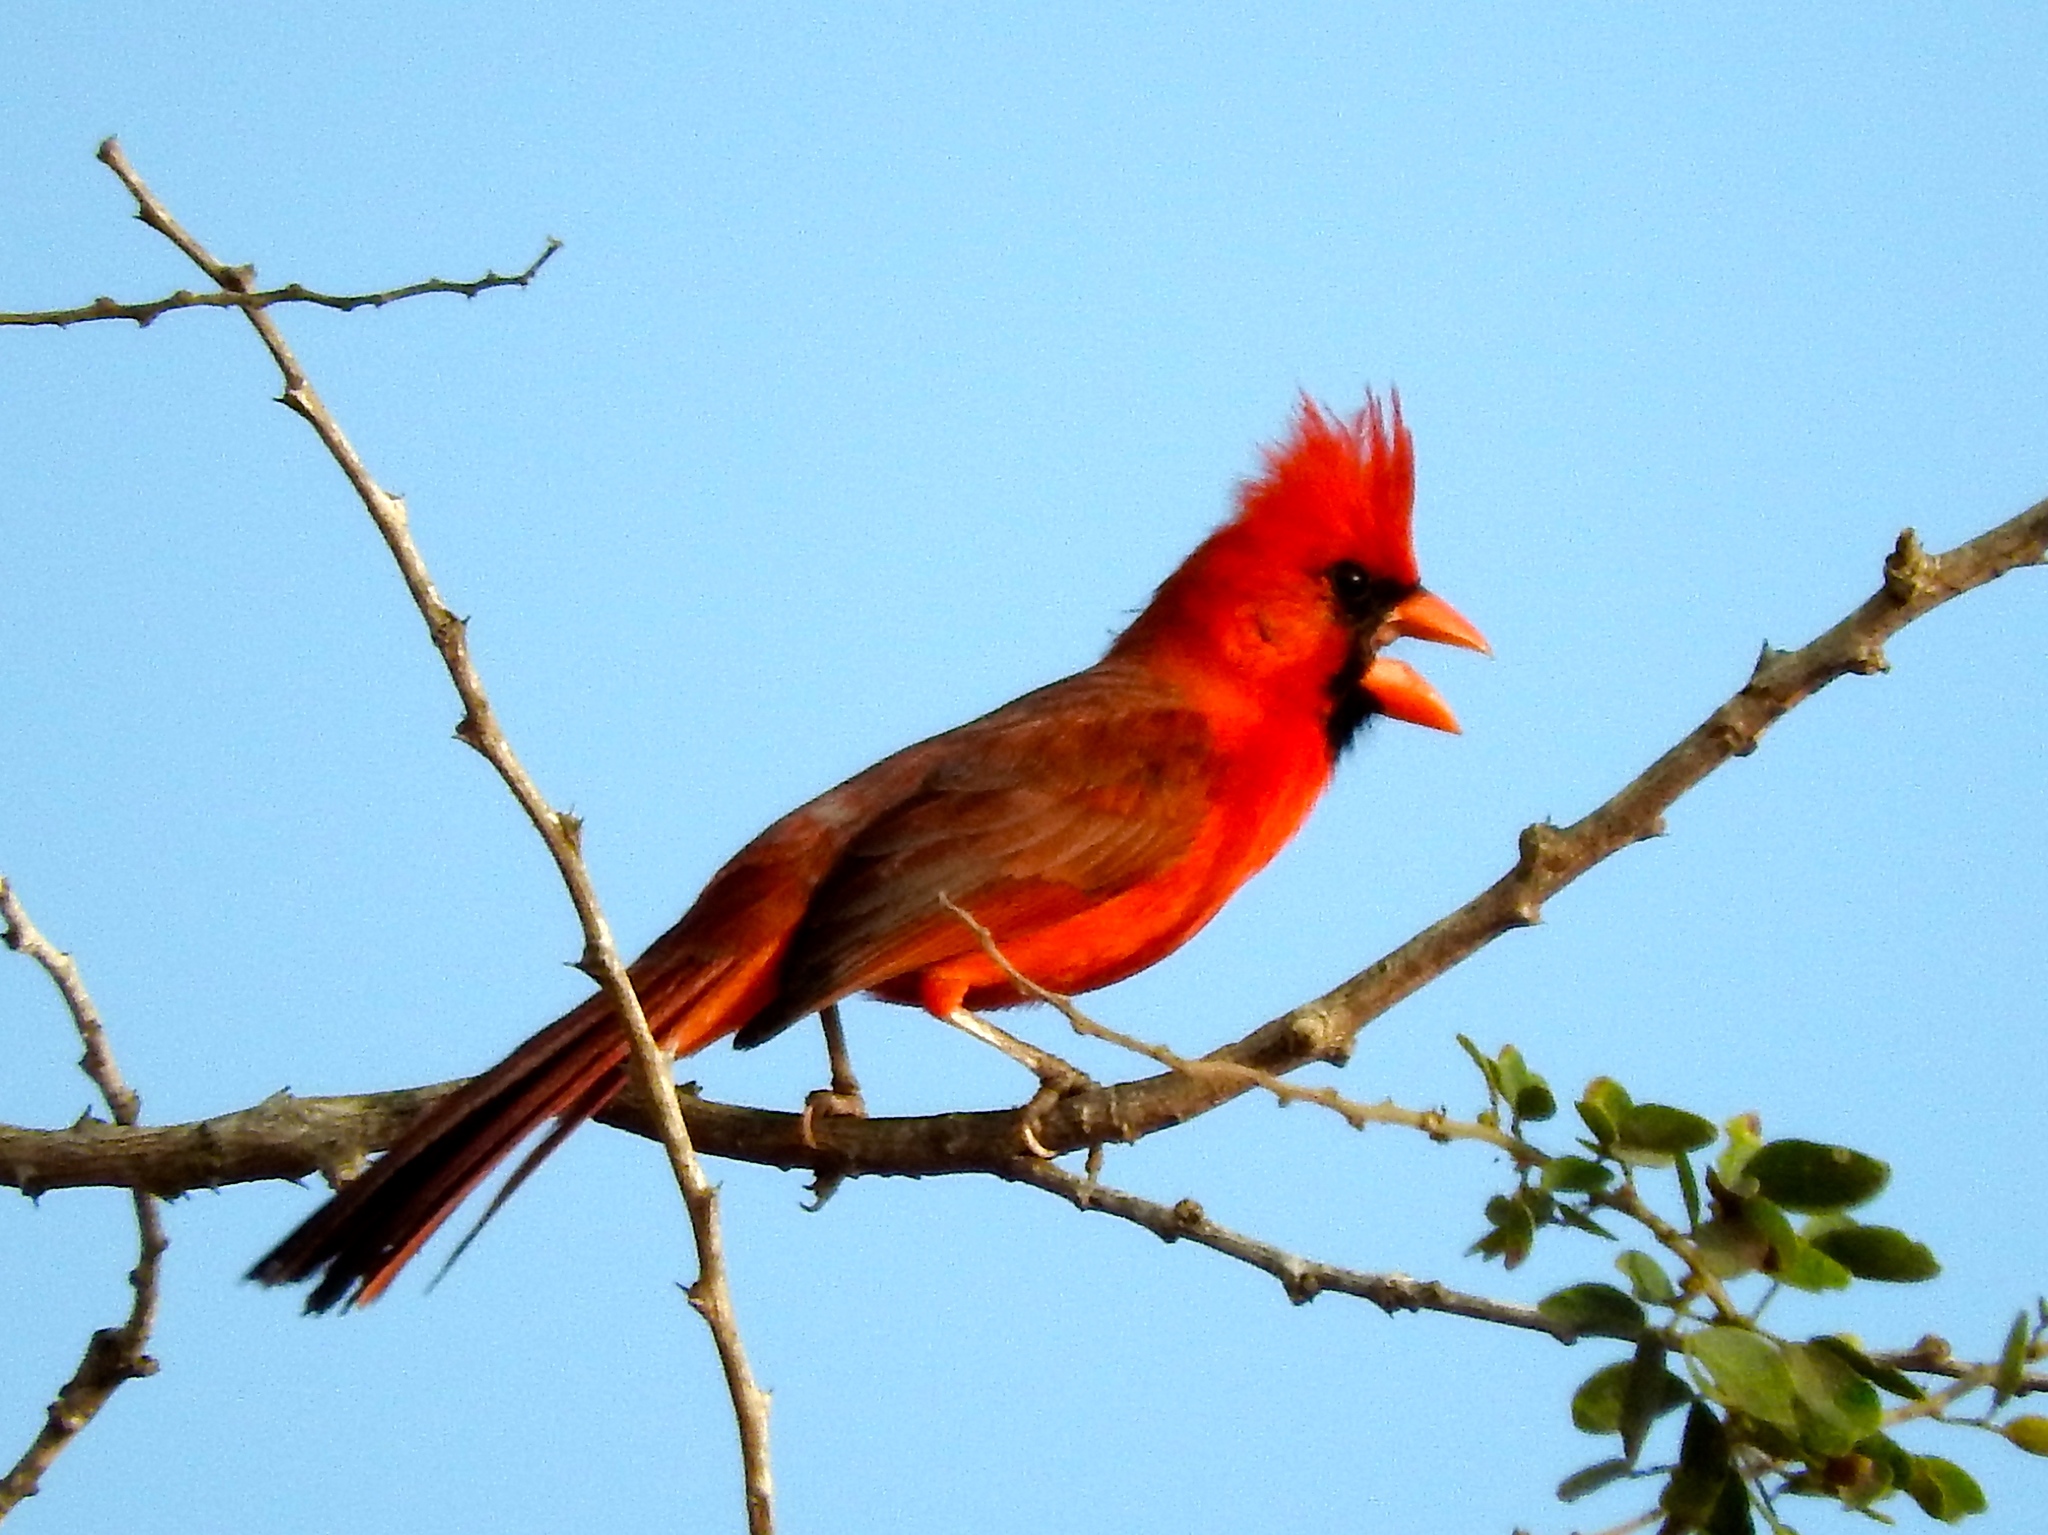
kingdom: Animalia
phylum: Chordata
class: Aves
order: Passeriformes
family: Cardinalidae
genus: Cardinalis
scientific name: Cardinalis cardinalis
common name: Northern cardinal
